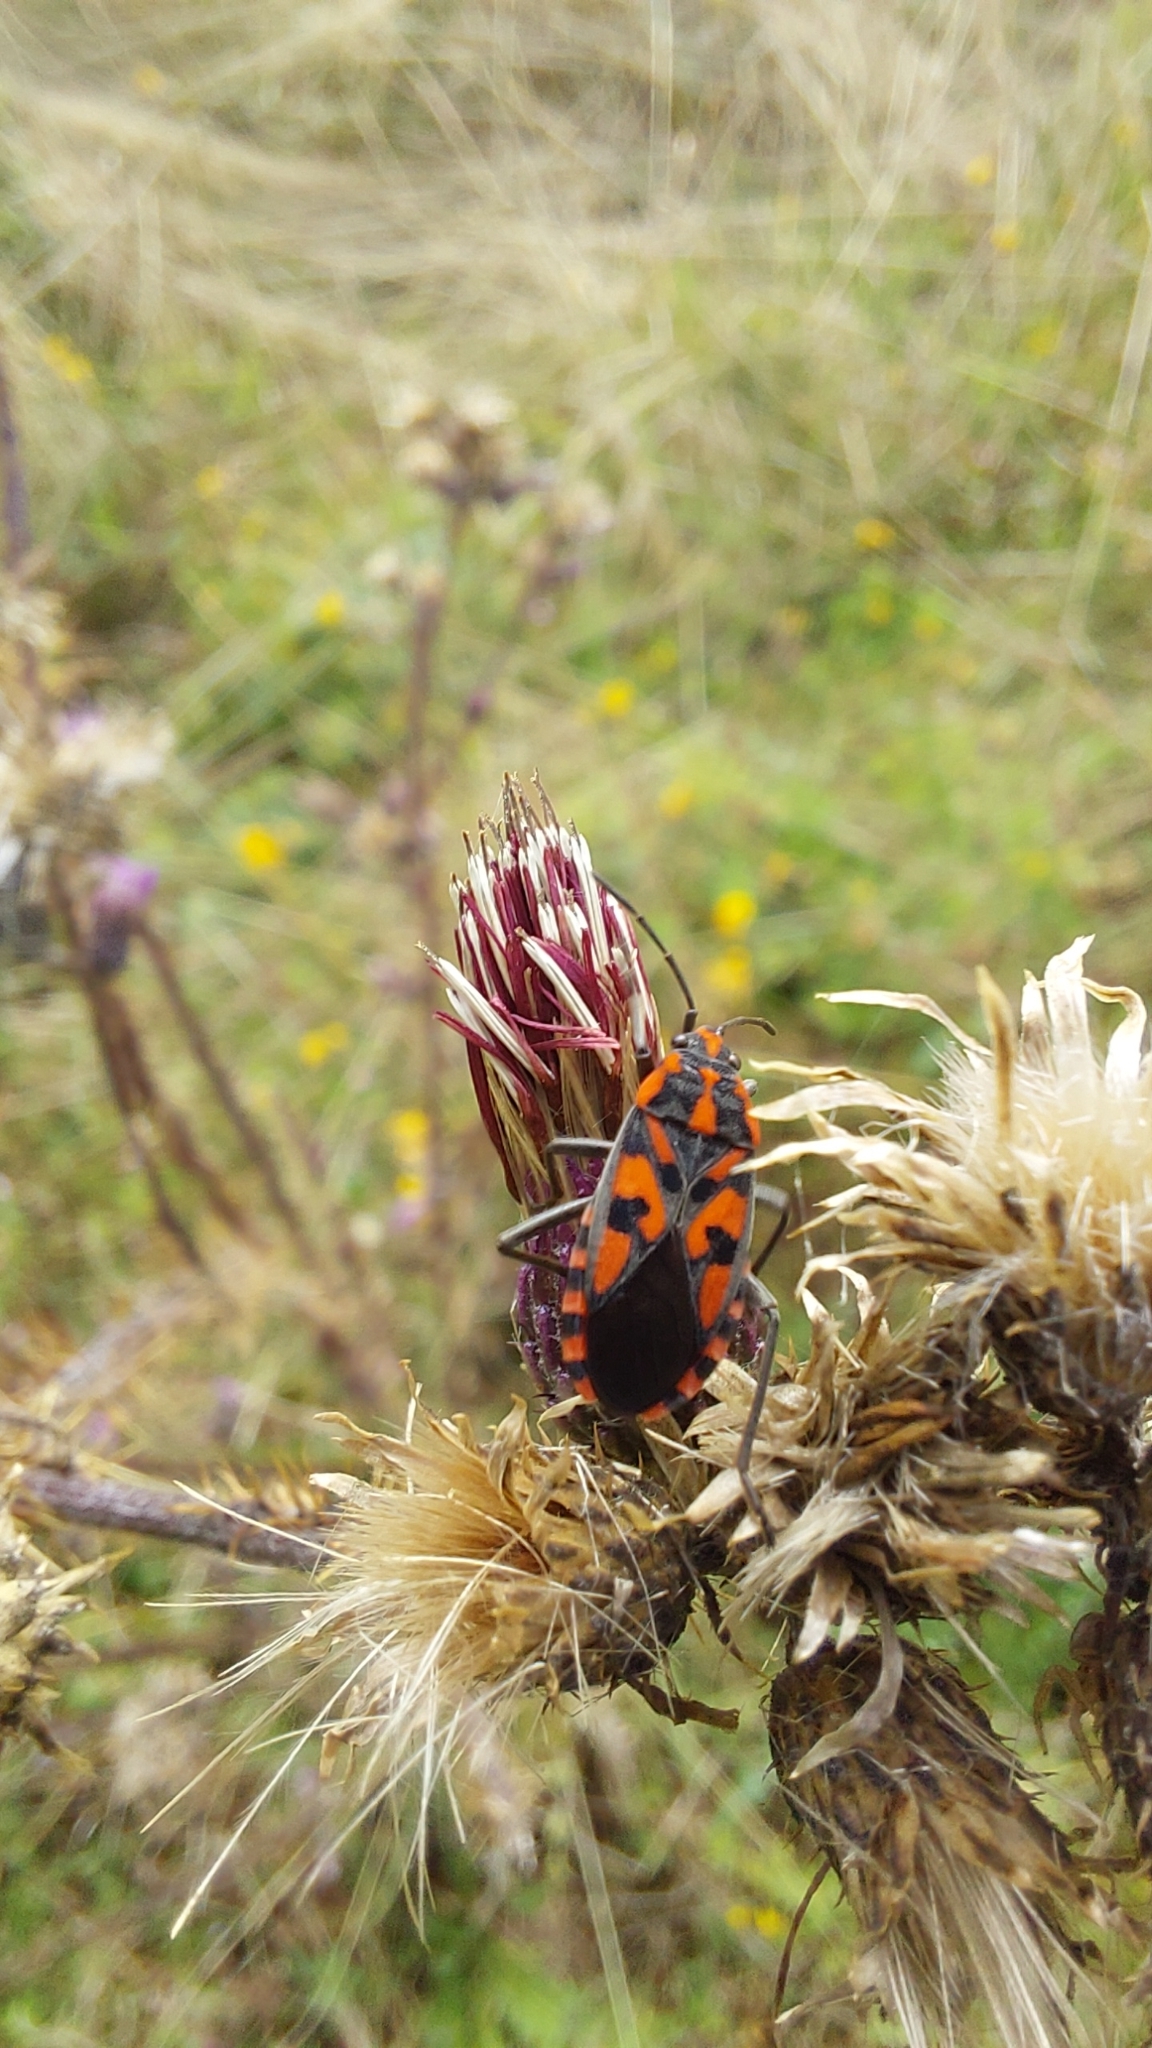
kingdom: Animalia
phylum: Arthropoda
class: Insecta
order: Hemiptera
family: Lygaeidae
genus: Spilostethus
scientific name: Spilostethus saxatilis
